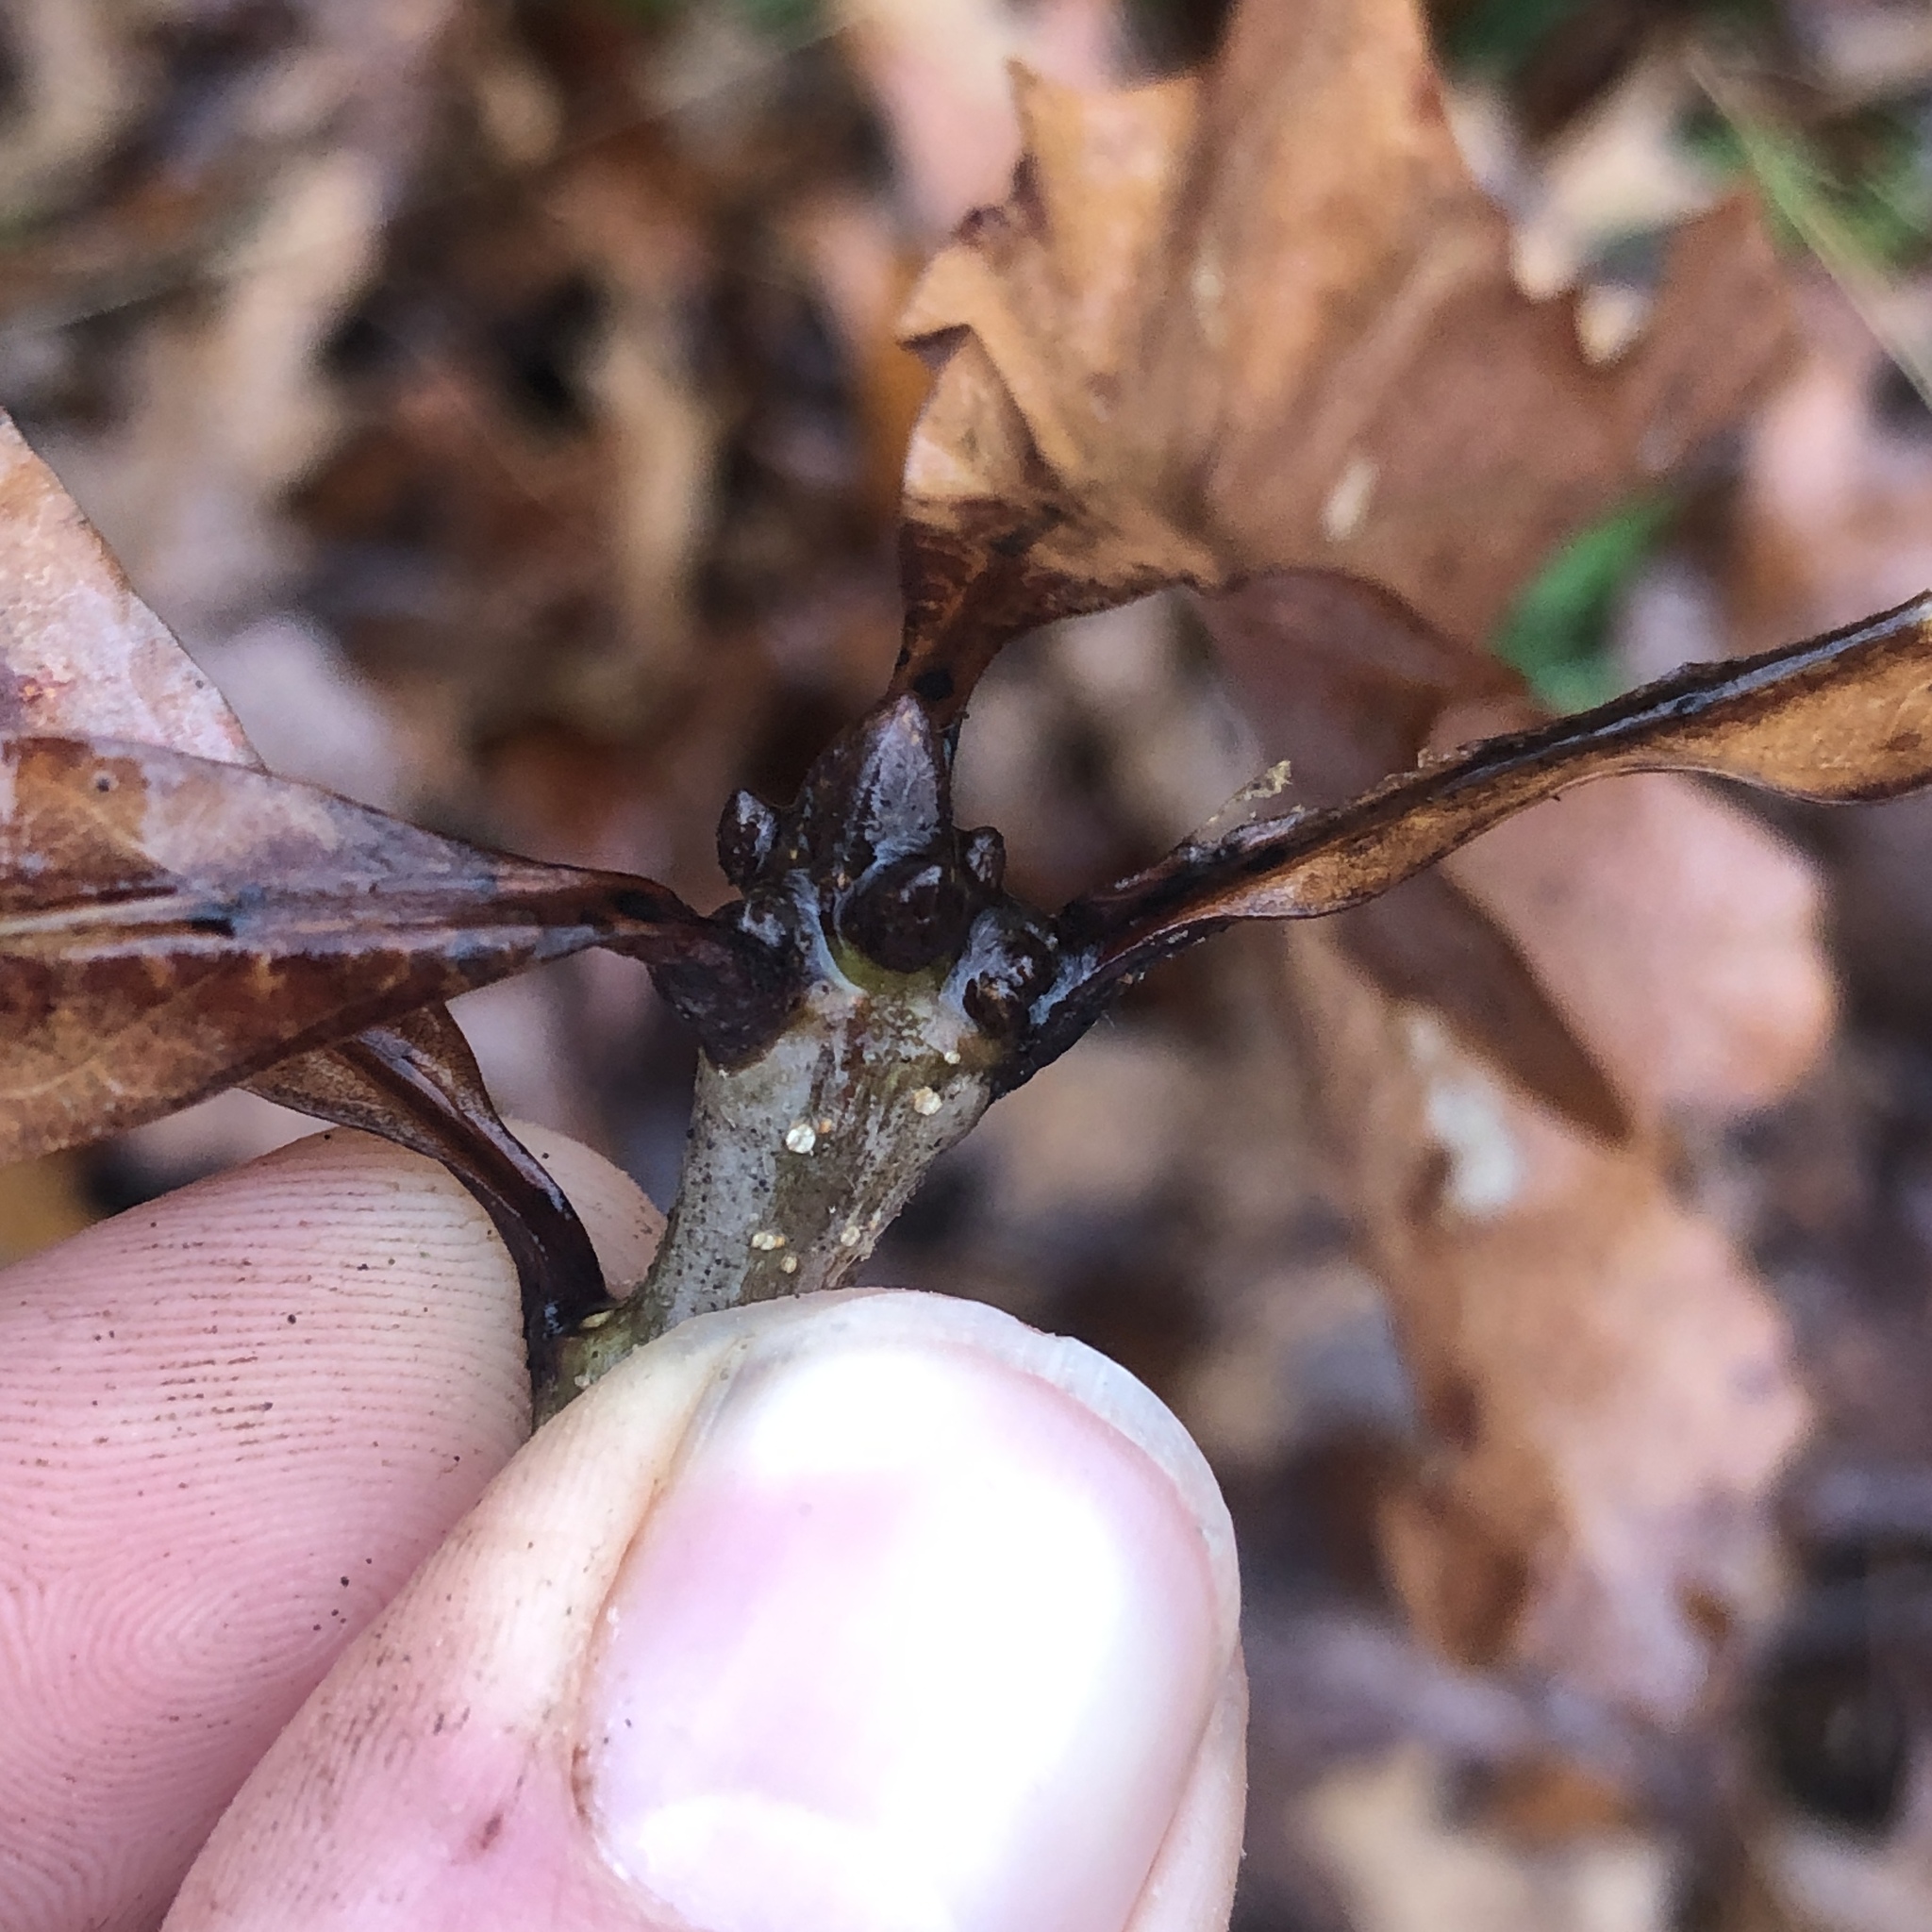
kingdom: Plantae
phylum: Tracheophyta
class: Magnoliopsida
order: Fagales
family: Fagaceae
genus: Quercus
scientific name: Quercus alba
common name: White oak
